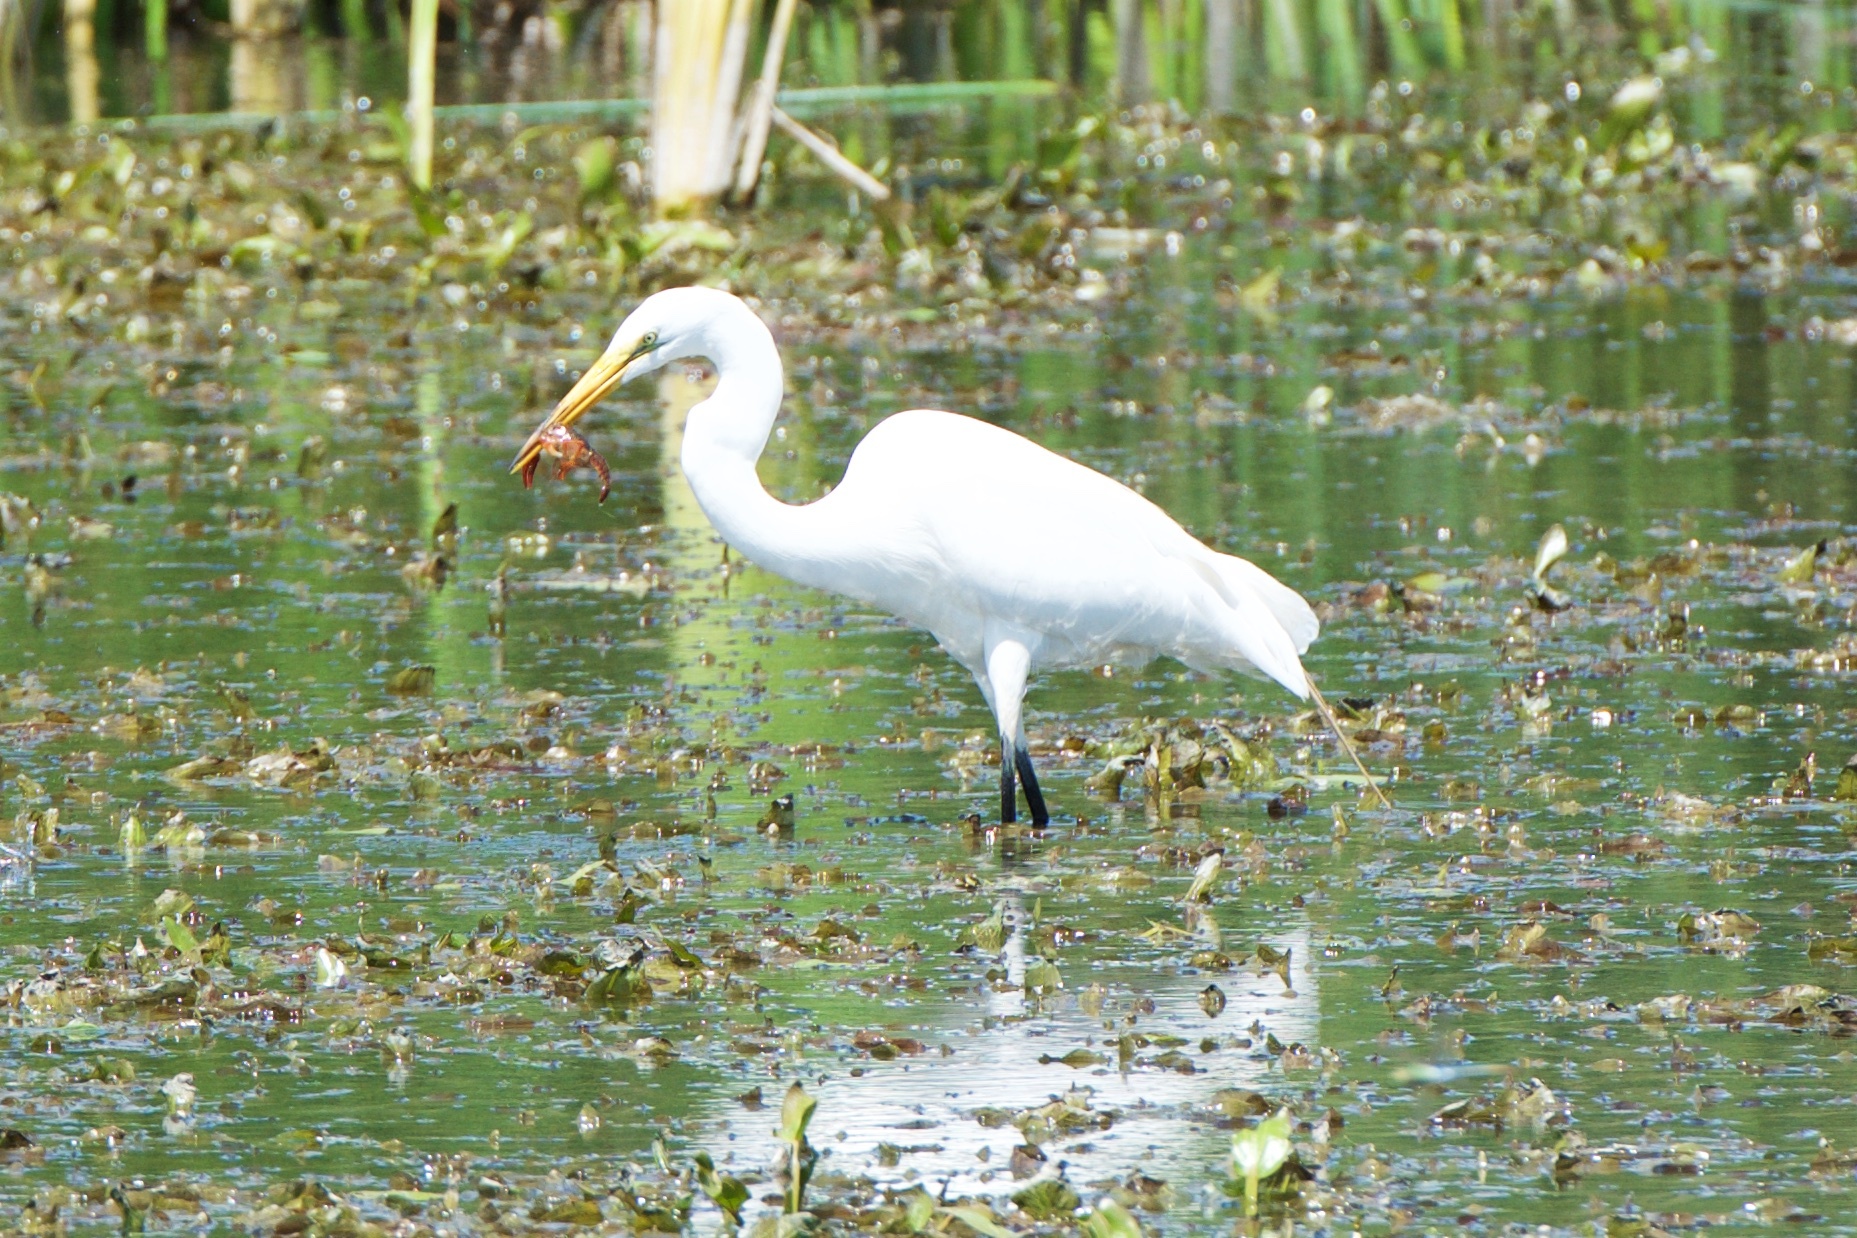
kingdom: Animalia
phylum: Chordata
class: Aves
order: Pelecaniformes
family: Ardeidae
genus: Ardea
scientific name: Ardea alba
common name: Great egret
